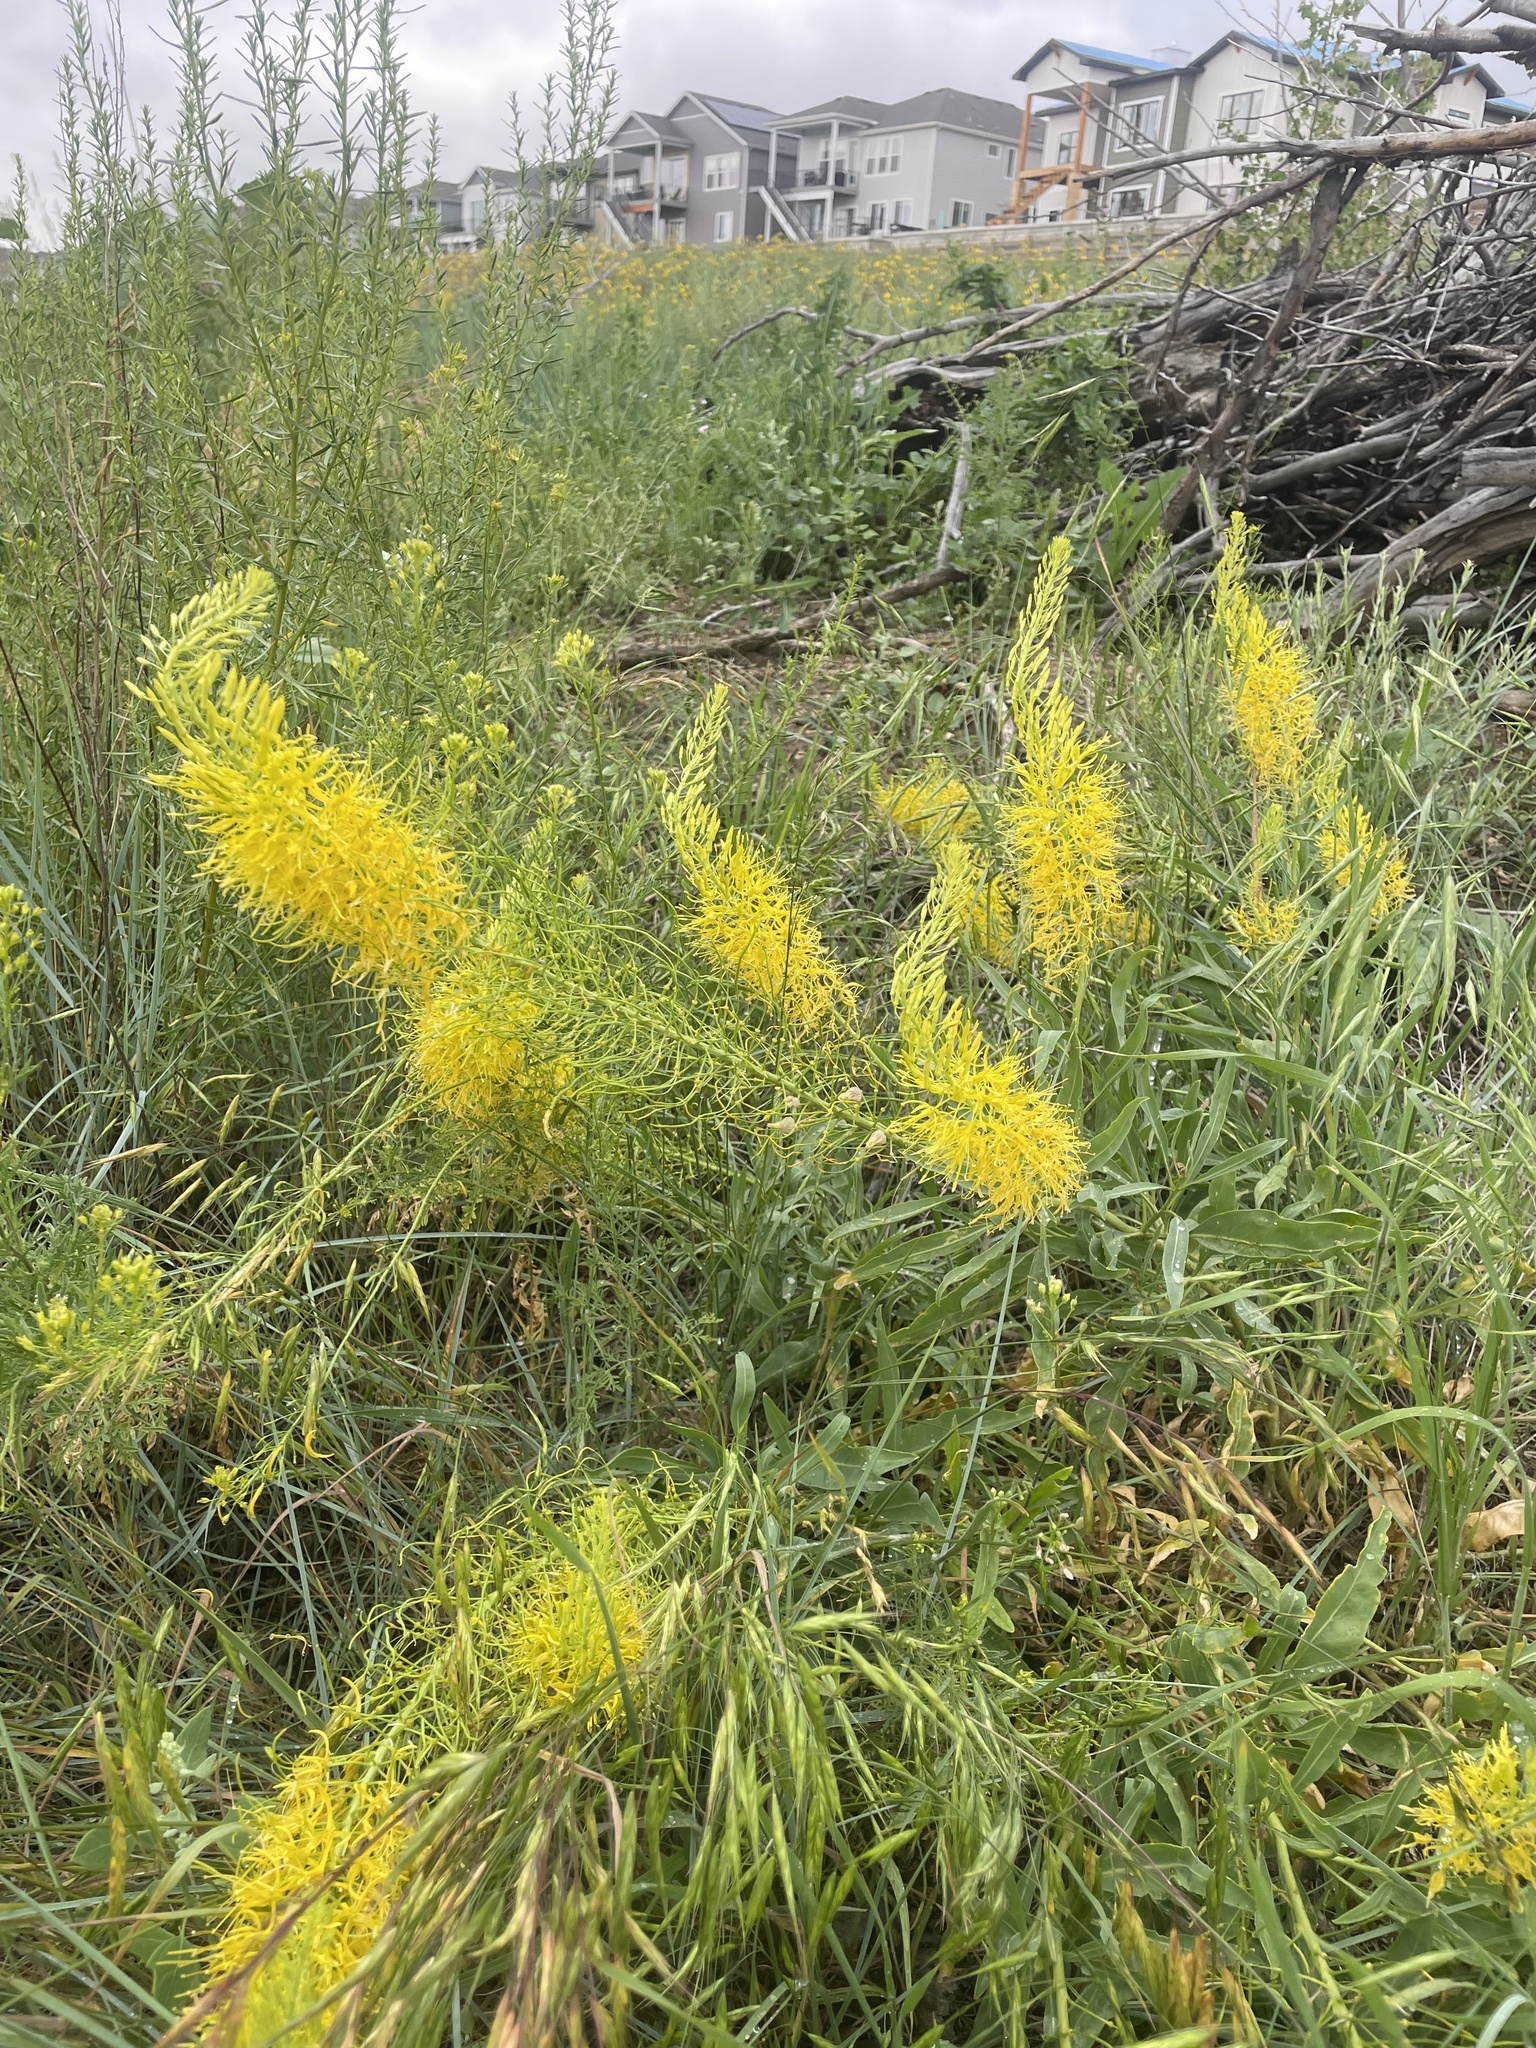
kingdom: Plantae
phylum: Tracheophyta
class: Magnoliopsida
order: Brassicales
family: Brassicaceae
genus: Stanleya
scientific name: Stanleya pinnata
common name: Prince's-plume
